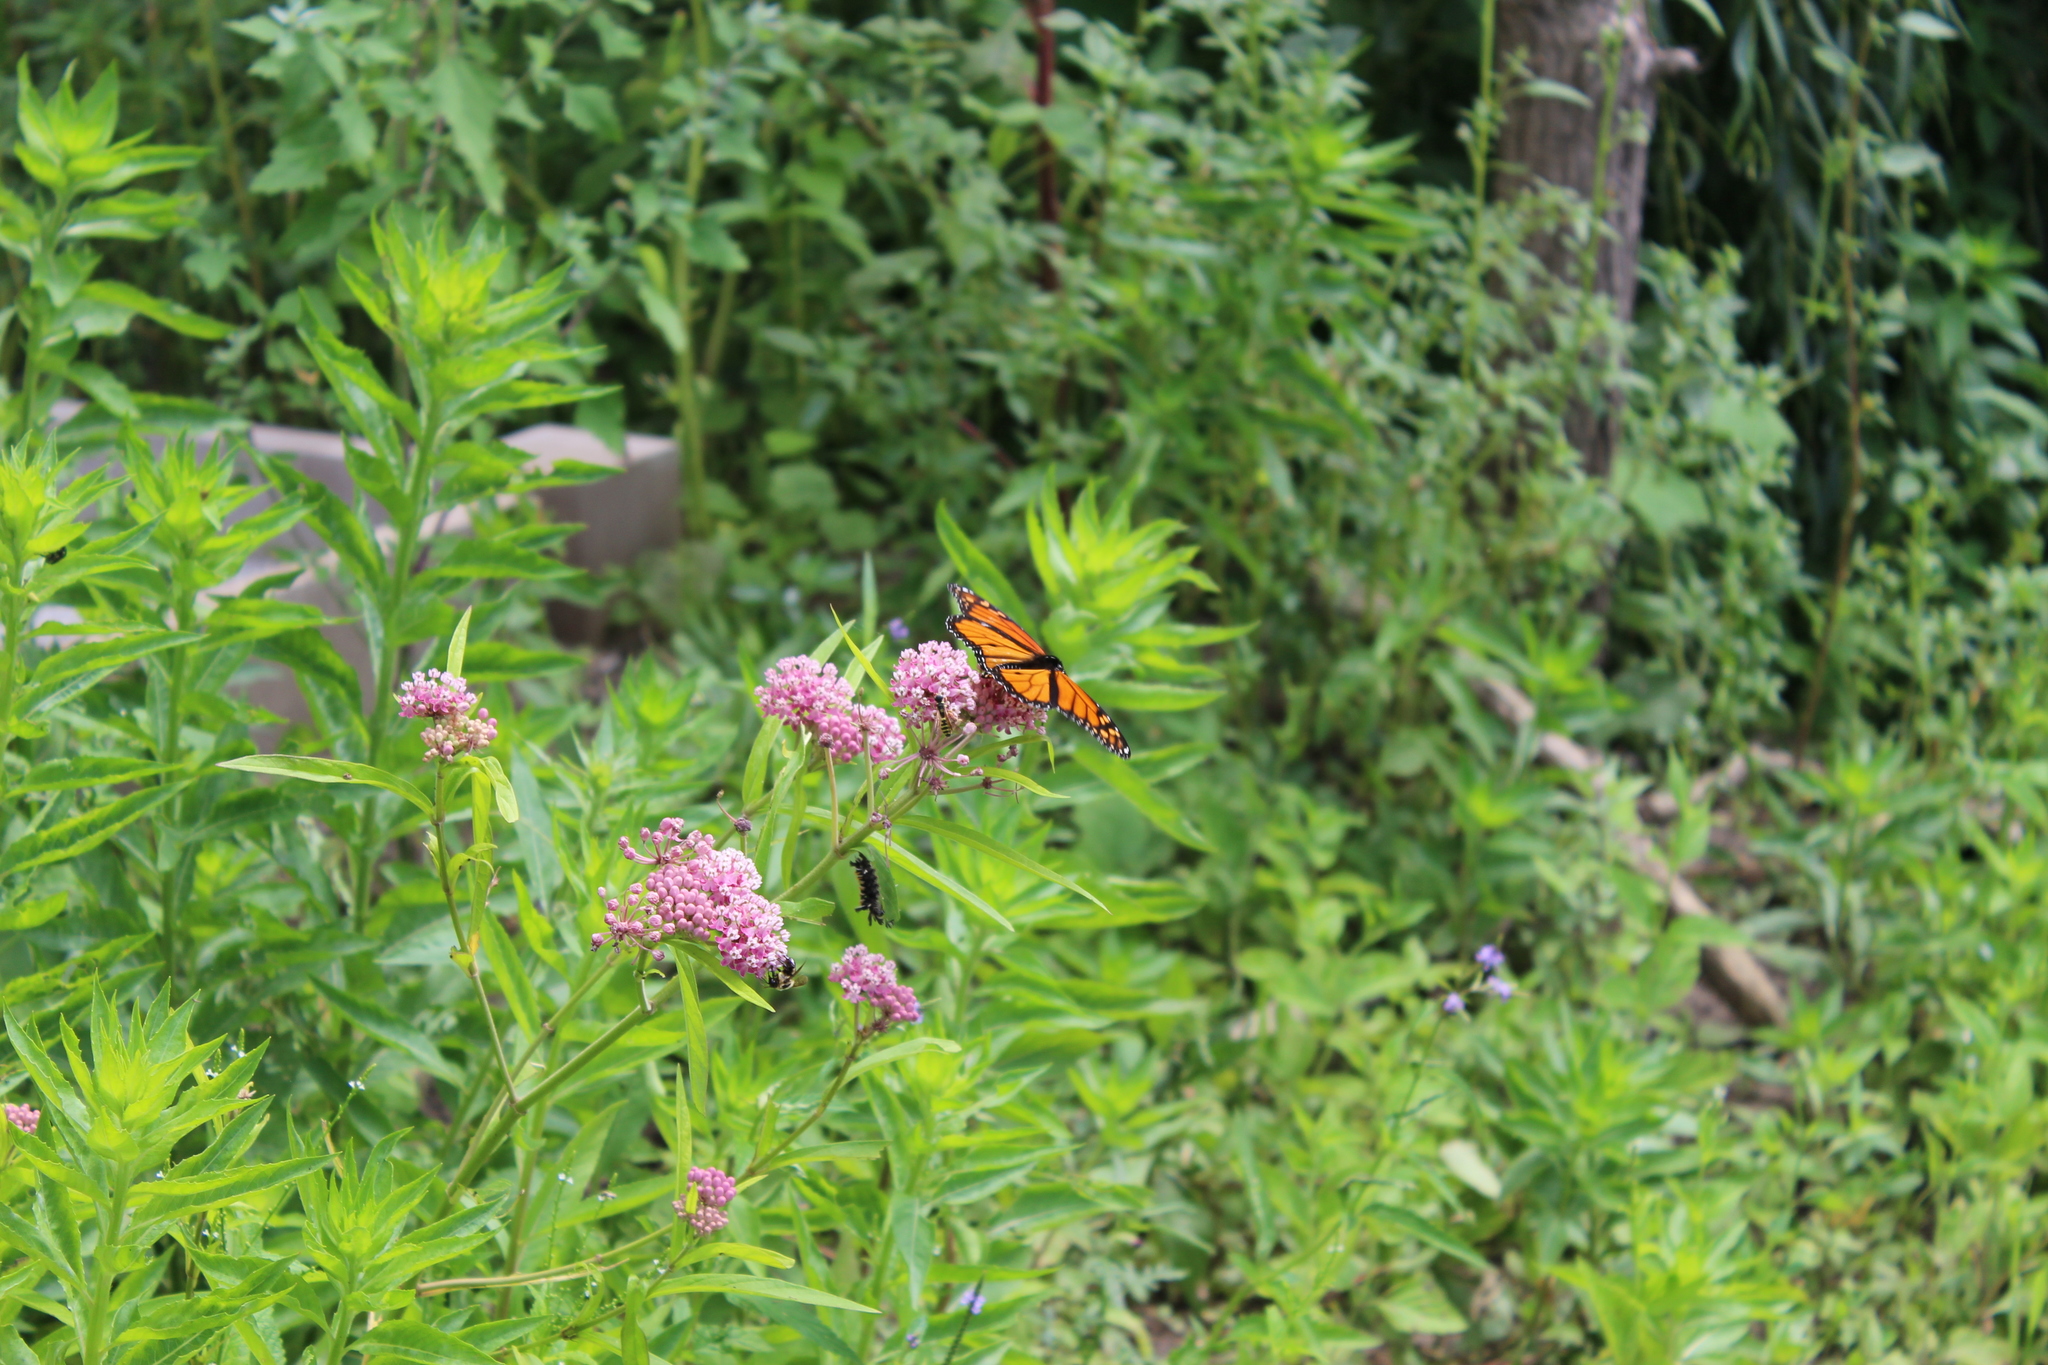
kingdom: Animalia
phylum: Arthropoda
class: Insecta
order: Lepidoptera
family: Nymphalidae
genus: Danaus
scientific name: Danaus plexippus
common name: Monarch
